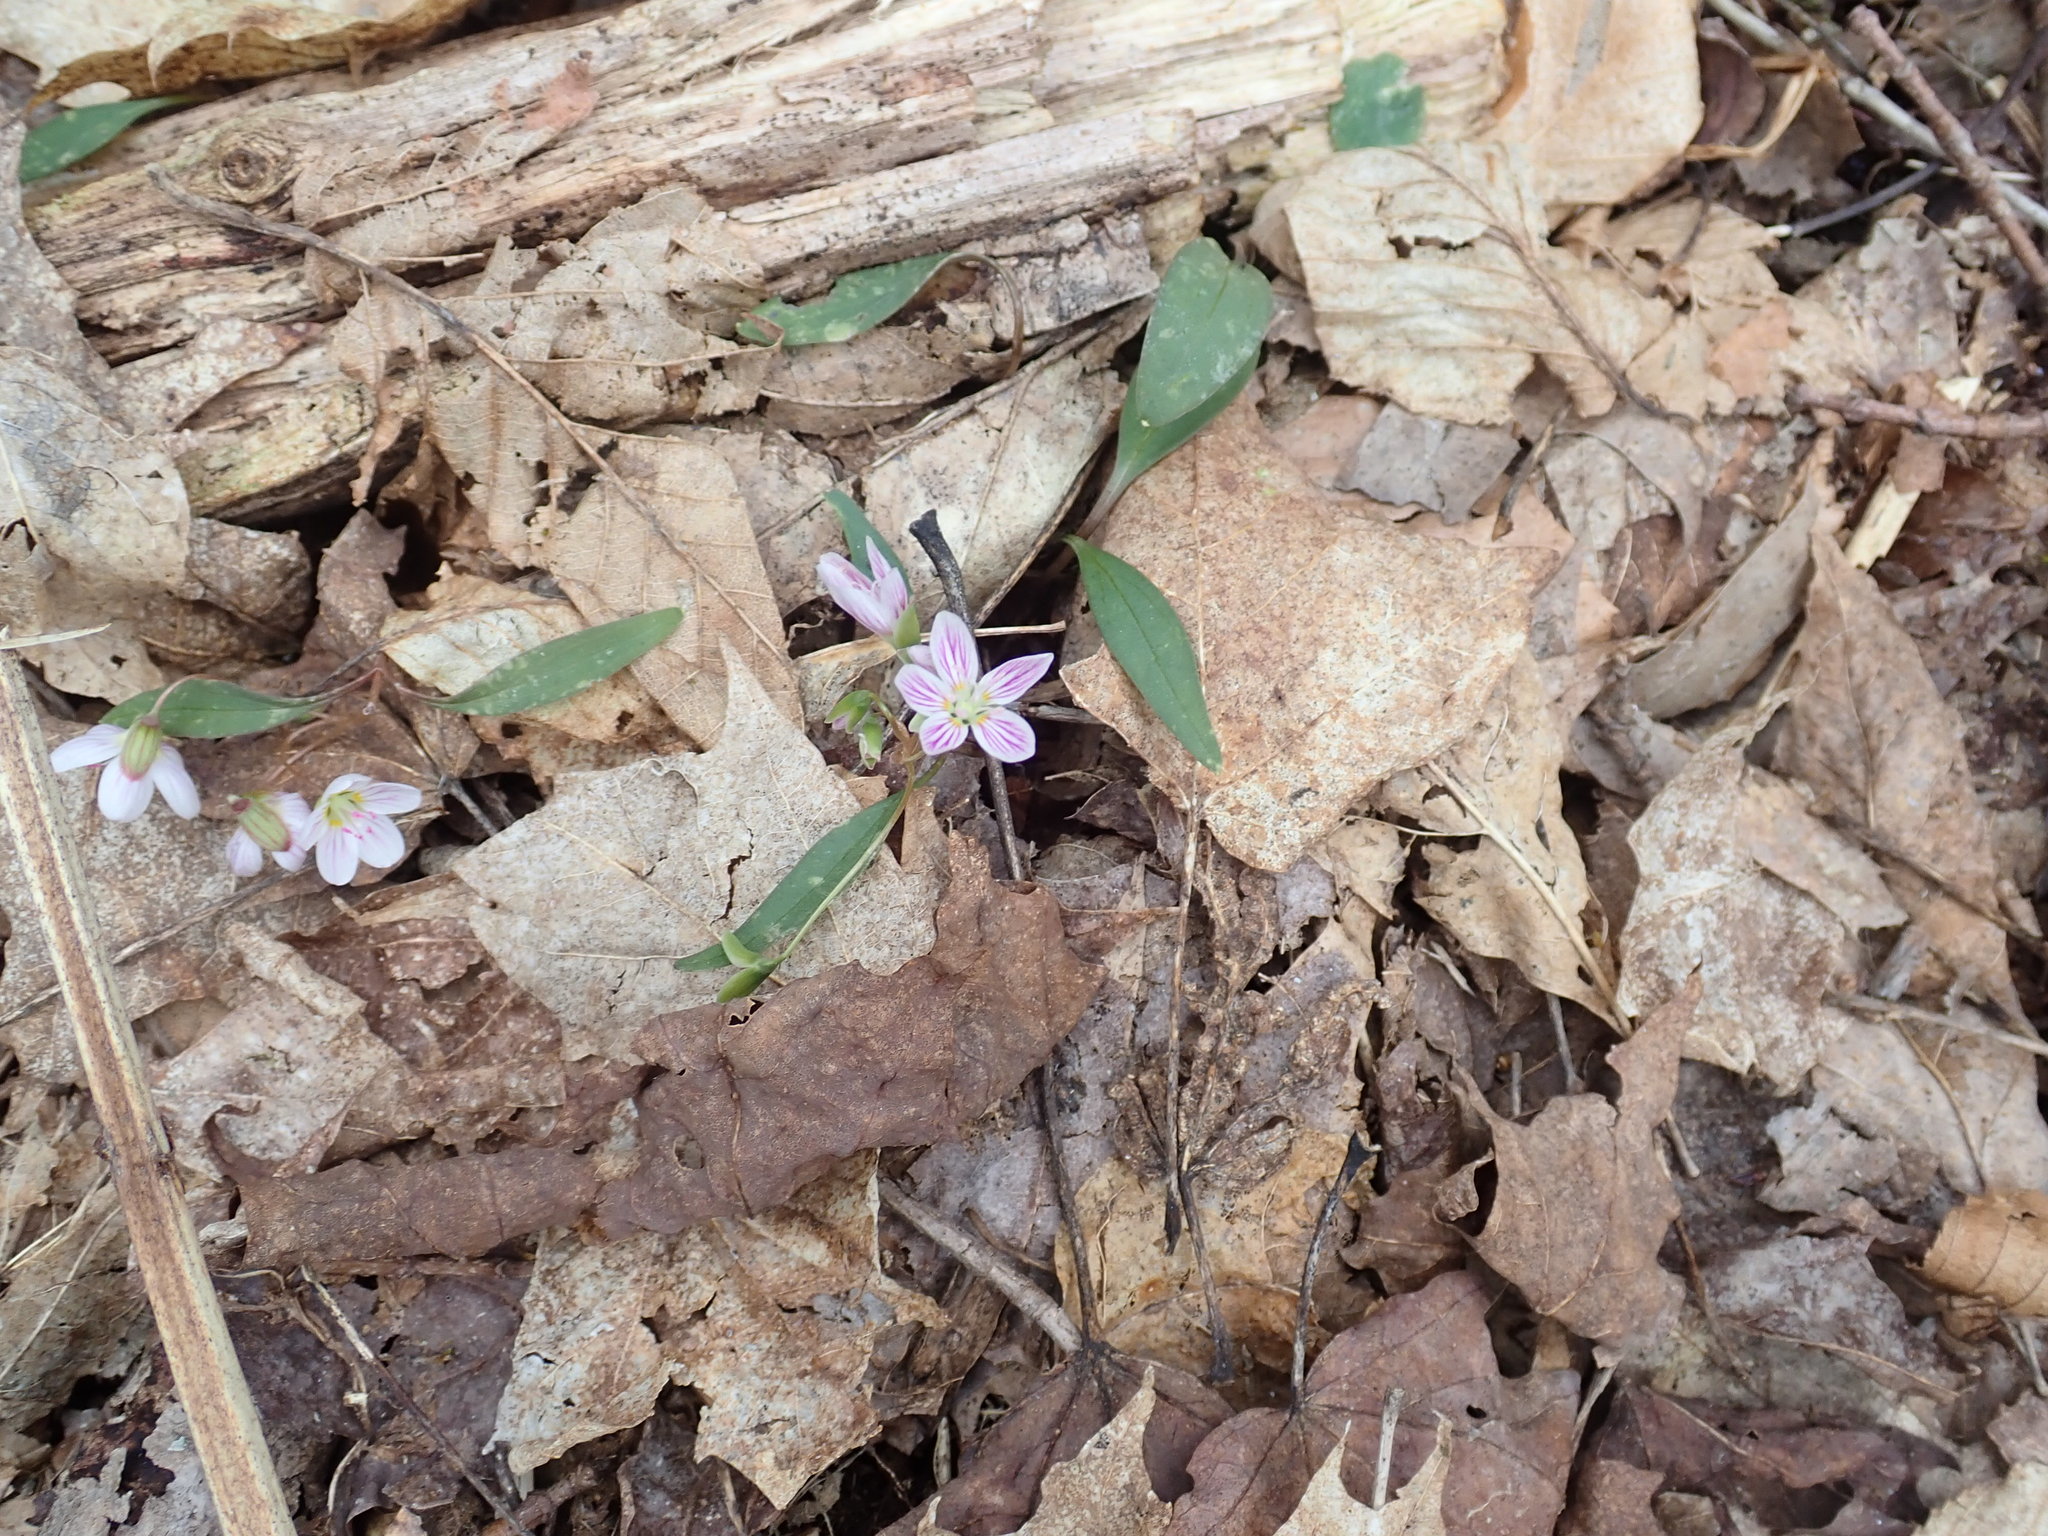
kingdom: Plantae
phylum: Tracheophyta
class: Magnoliopsida
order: Caryophyllales
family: Montiaceae
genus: Claytonia
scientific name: Claytonia caroliniana
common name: Carolina spring beauty
